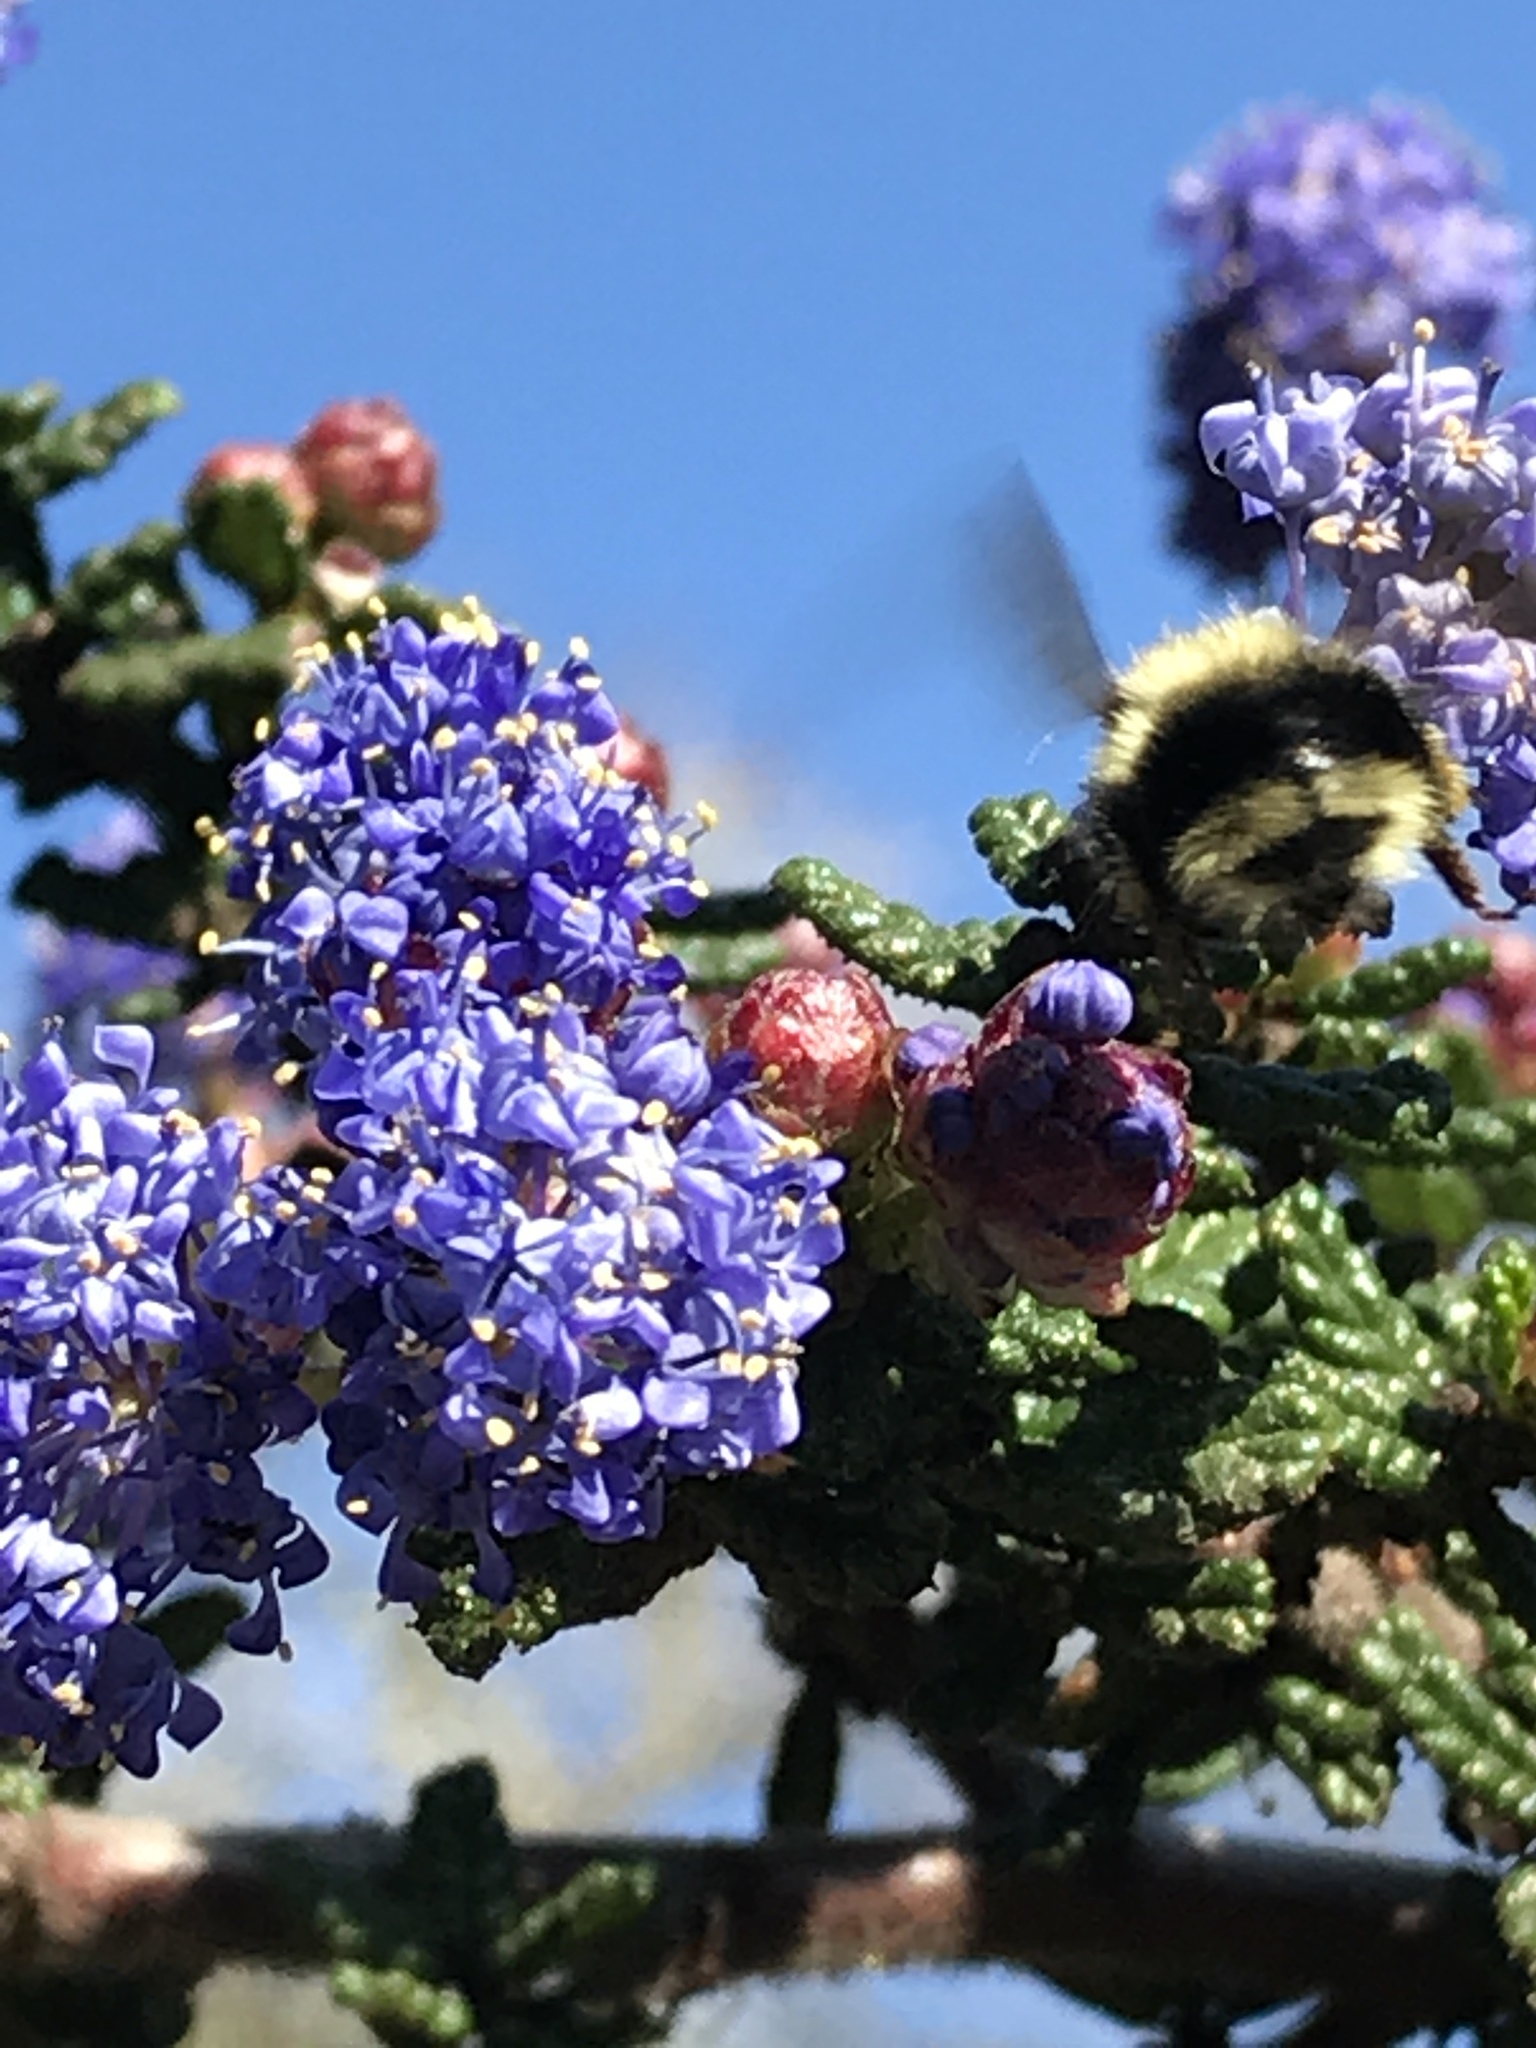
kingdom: Animalia
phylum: Arthropoda
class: Insecta
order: Hymenoptera
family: Apidae
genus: Bombus
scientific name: Bombus melanopygus
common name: Black tail bumble bee
